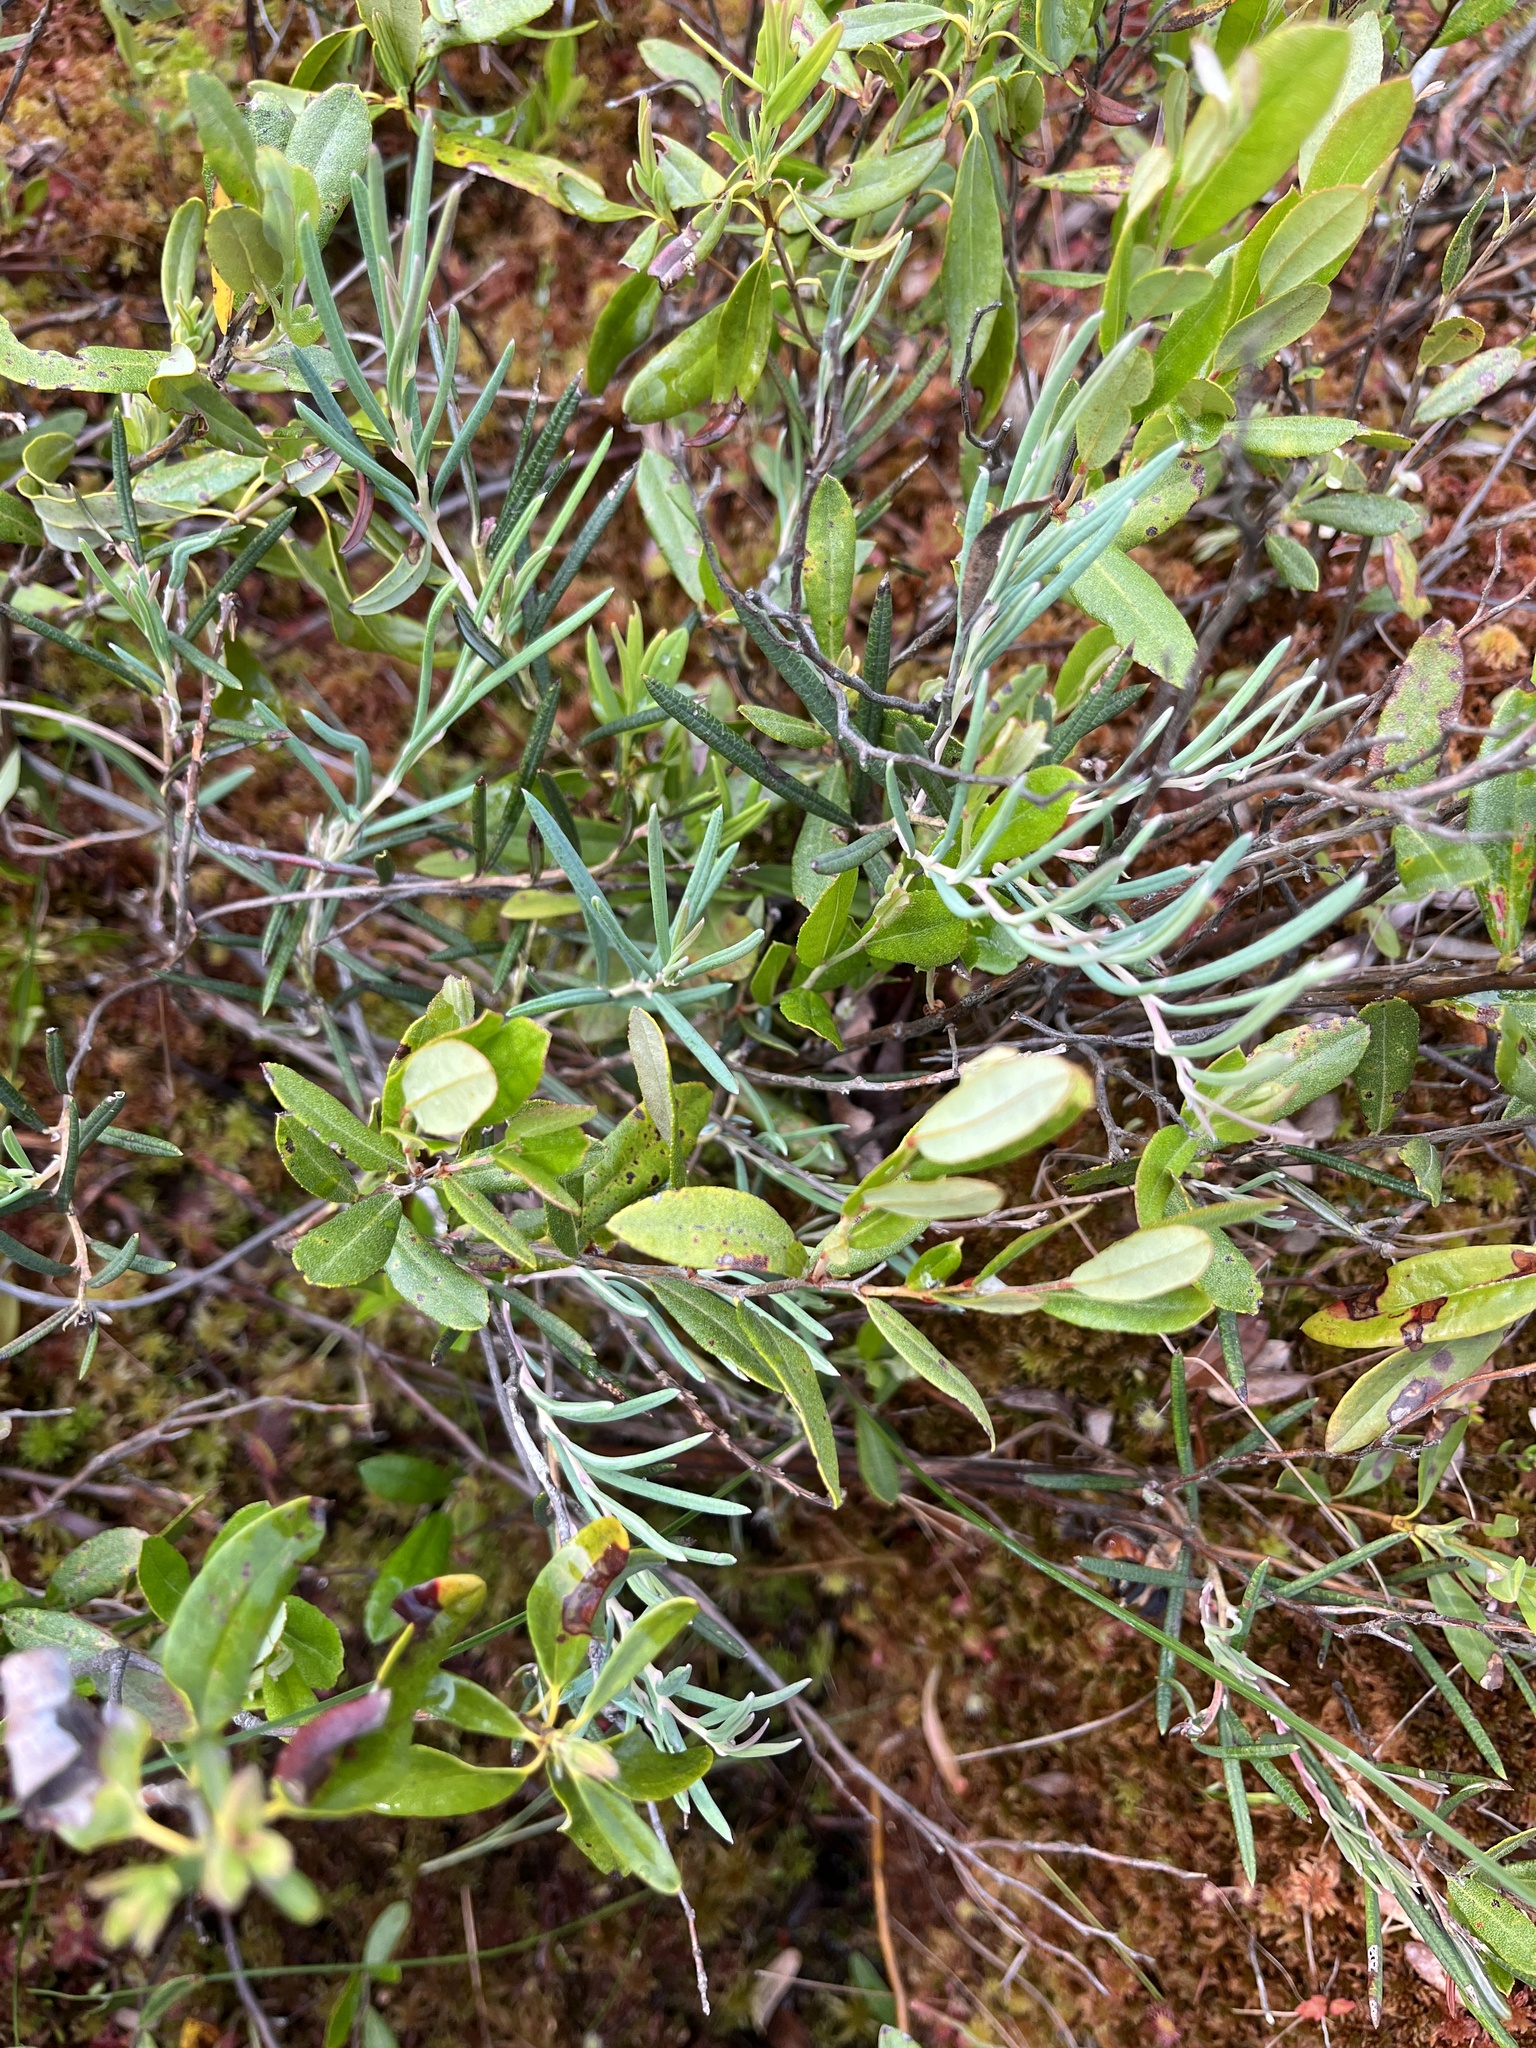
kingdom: Plantae
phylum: Tracheophyta
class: Magnoliopsida
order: Ericales
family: Ericaceae
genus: Andromeda
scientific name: Andromeda polifolia
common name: Bog-rosemary
